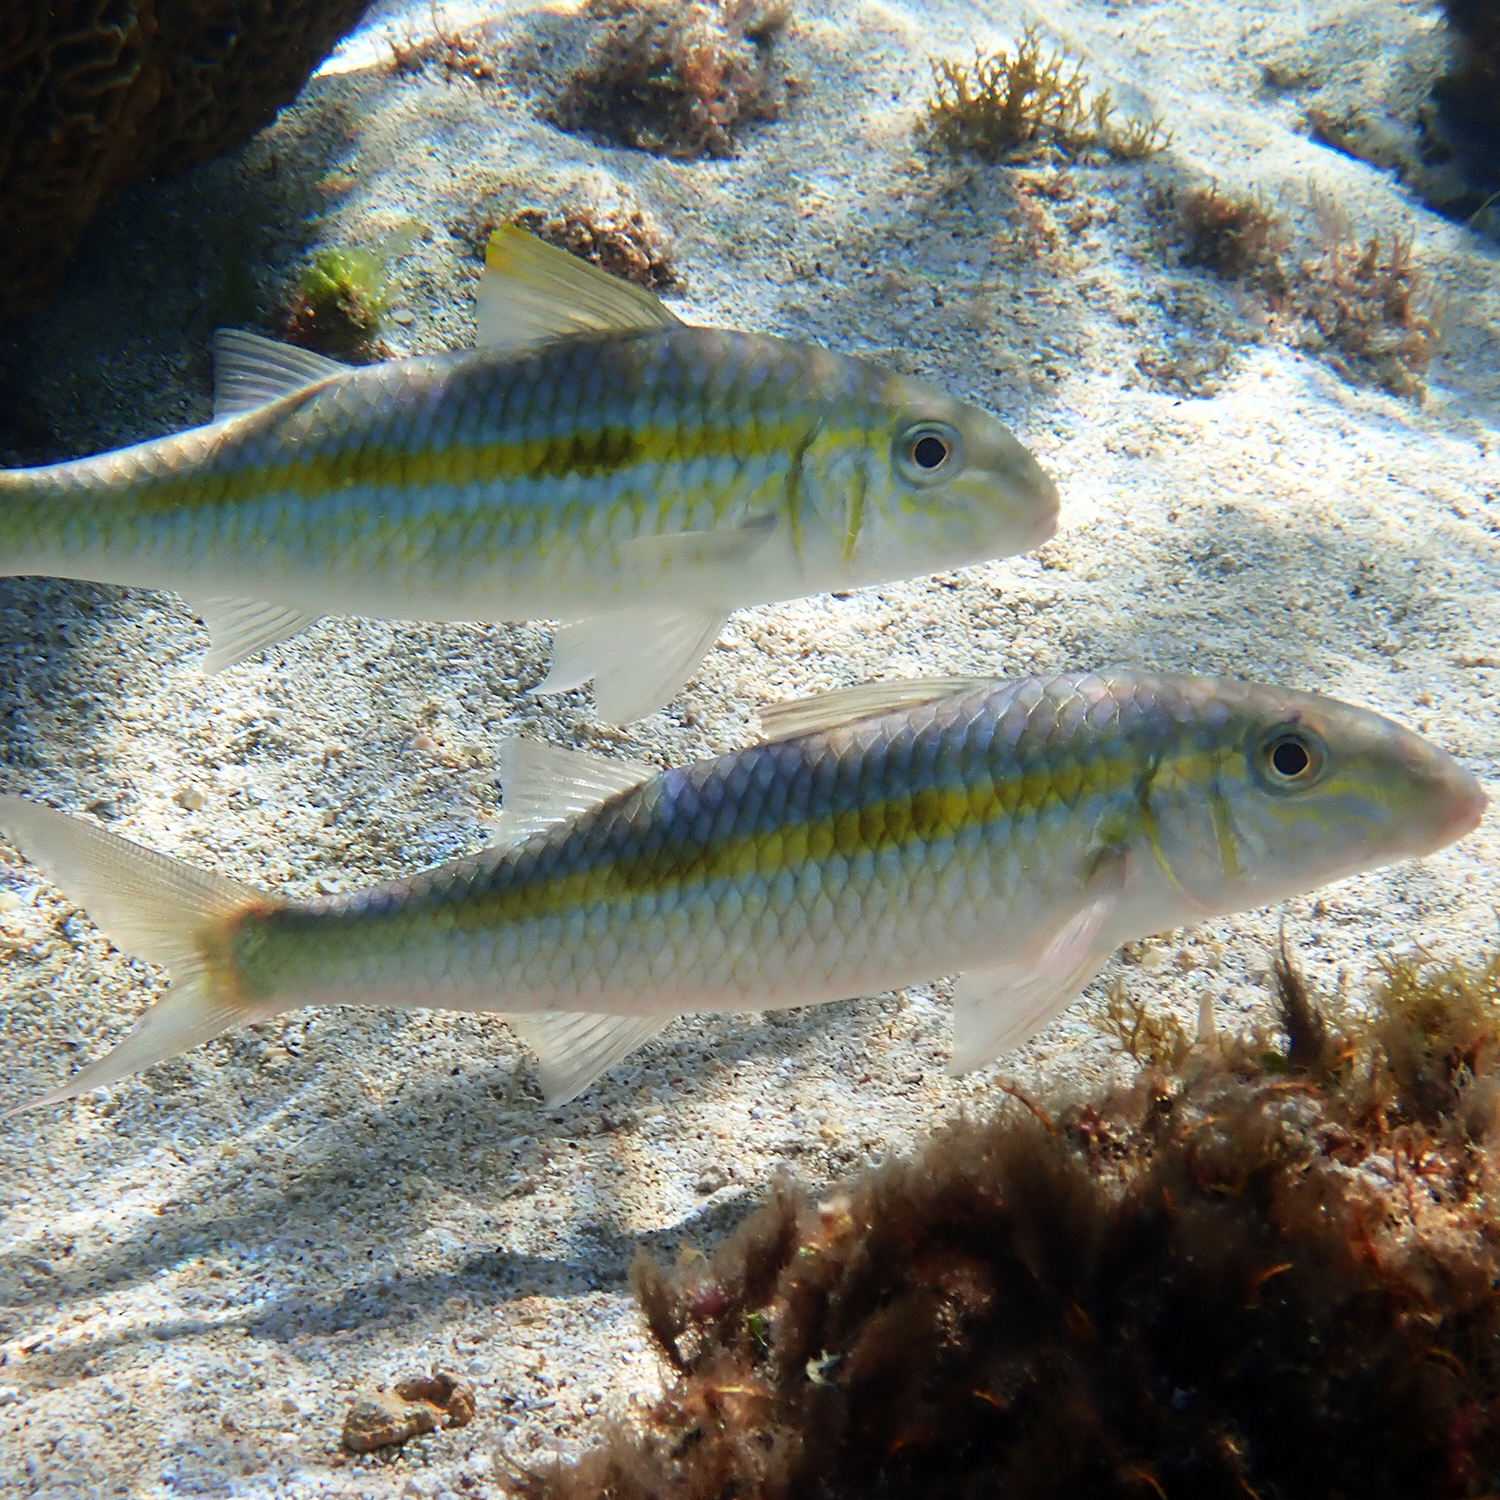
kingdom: Animalia
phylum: Chordata
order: Perciformes
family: Mullidae
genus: Mulloidichthys
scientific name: Mulloidichthys flavolineatus
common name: Yellowstripe goatfish
